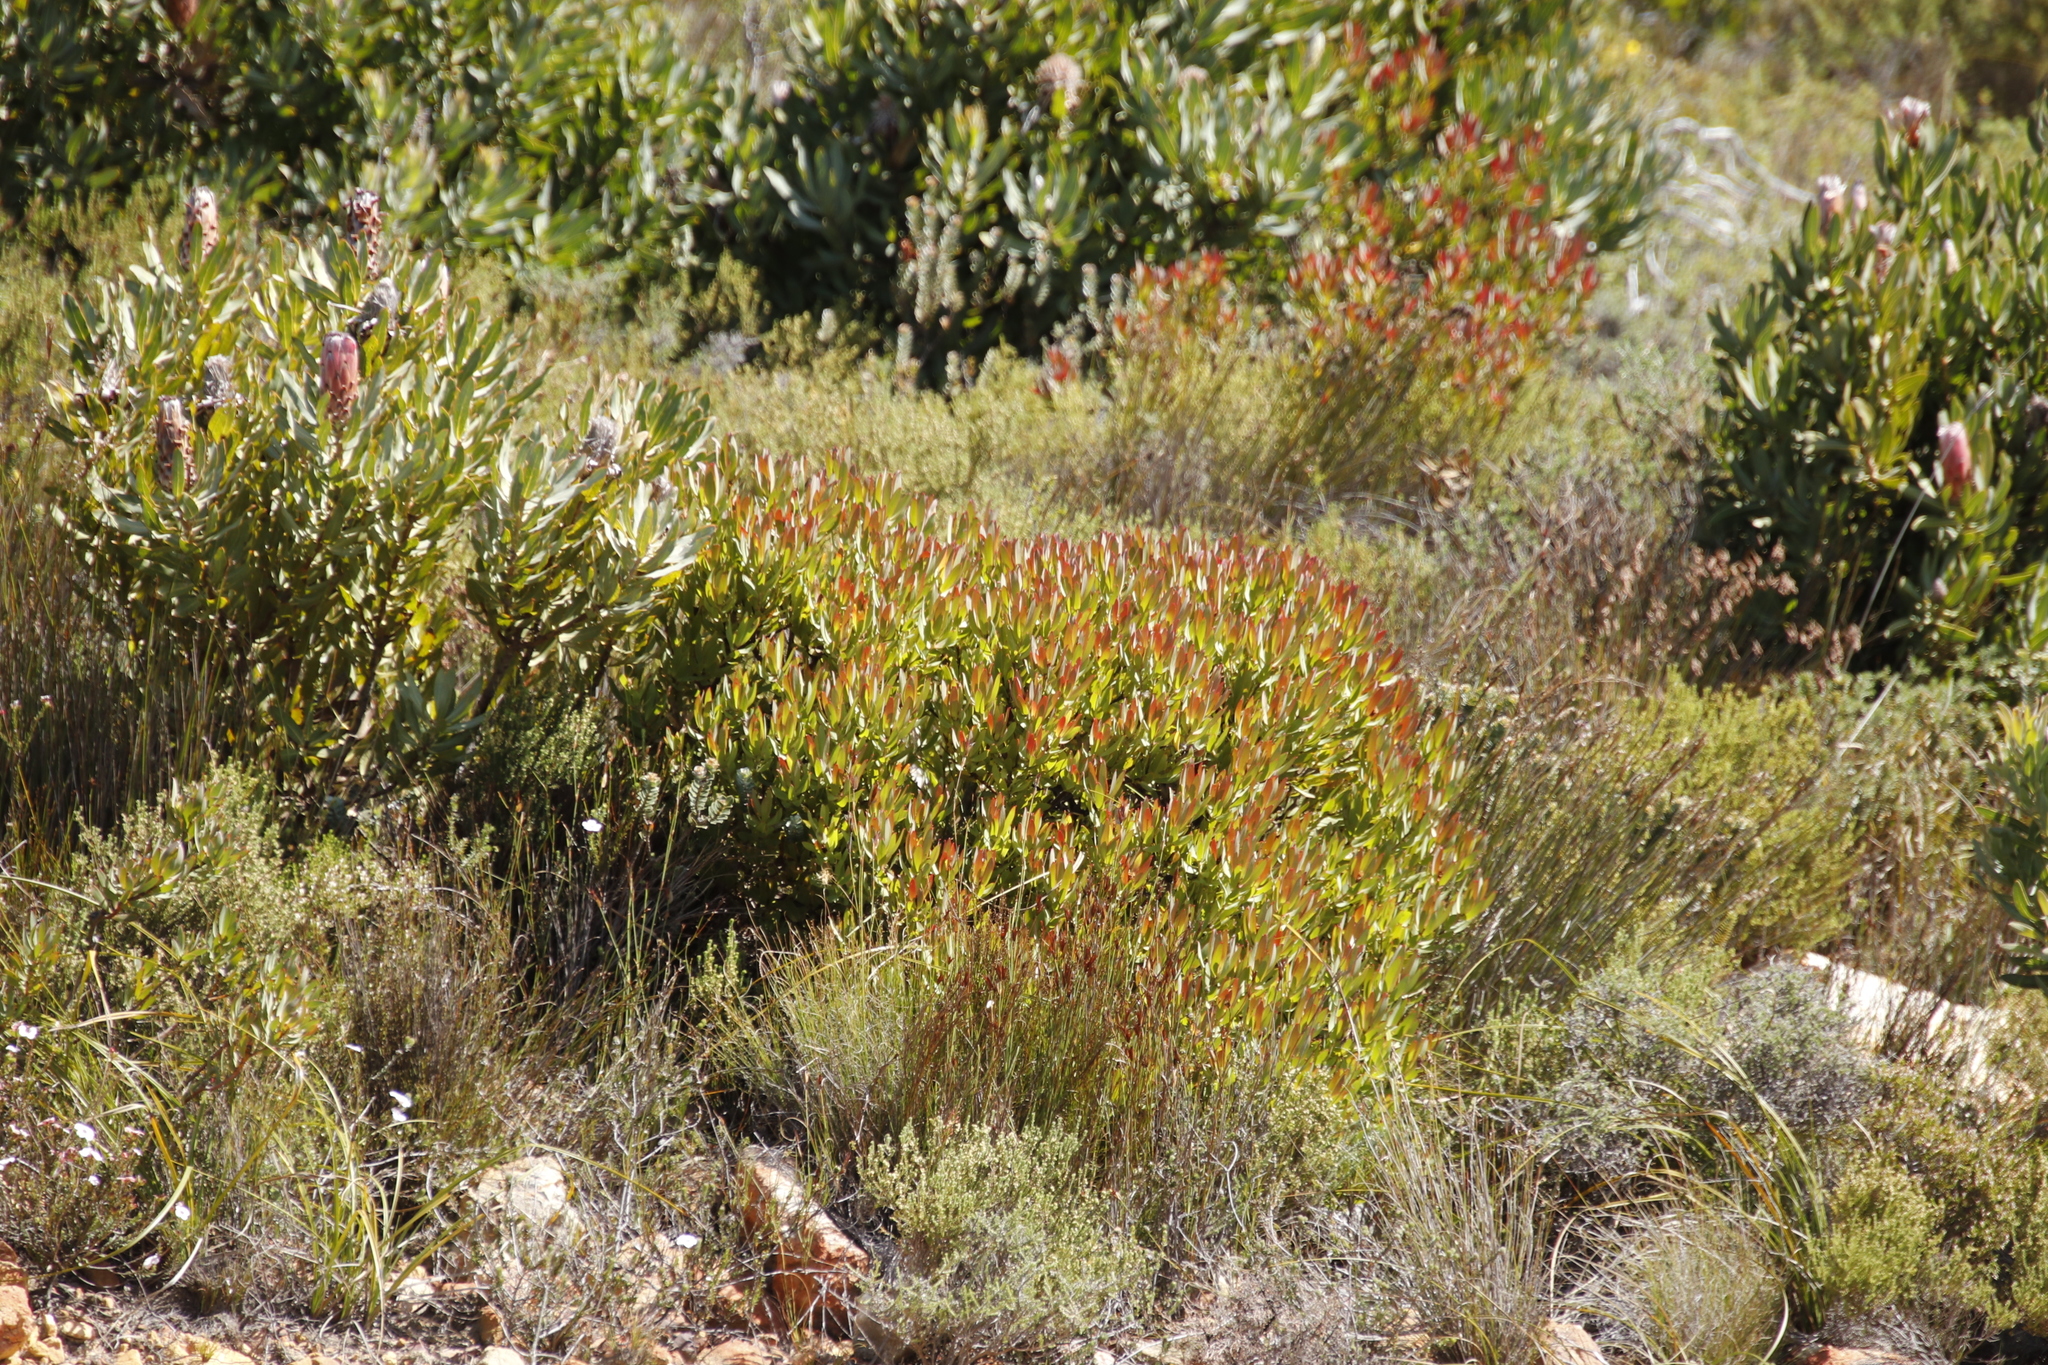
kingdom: Plantae
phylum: Tracheophyta
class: Magnoliopsida
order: Proteales
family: Proteaceae
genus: Leucadendron
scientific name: Leucadendron sessile
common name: Western sunbush
